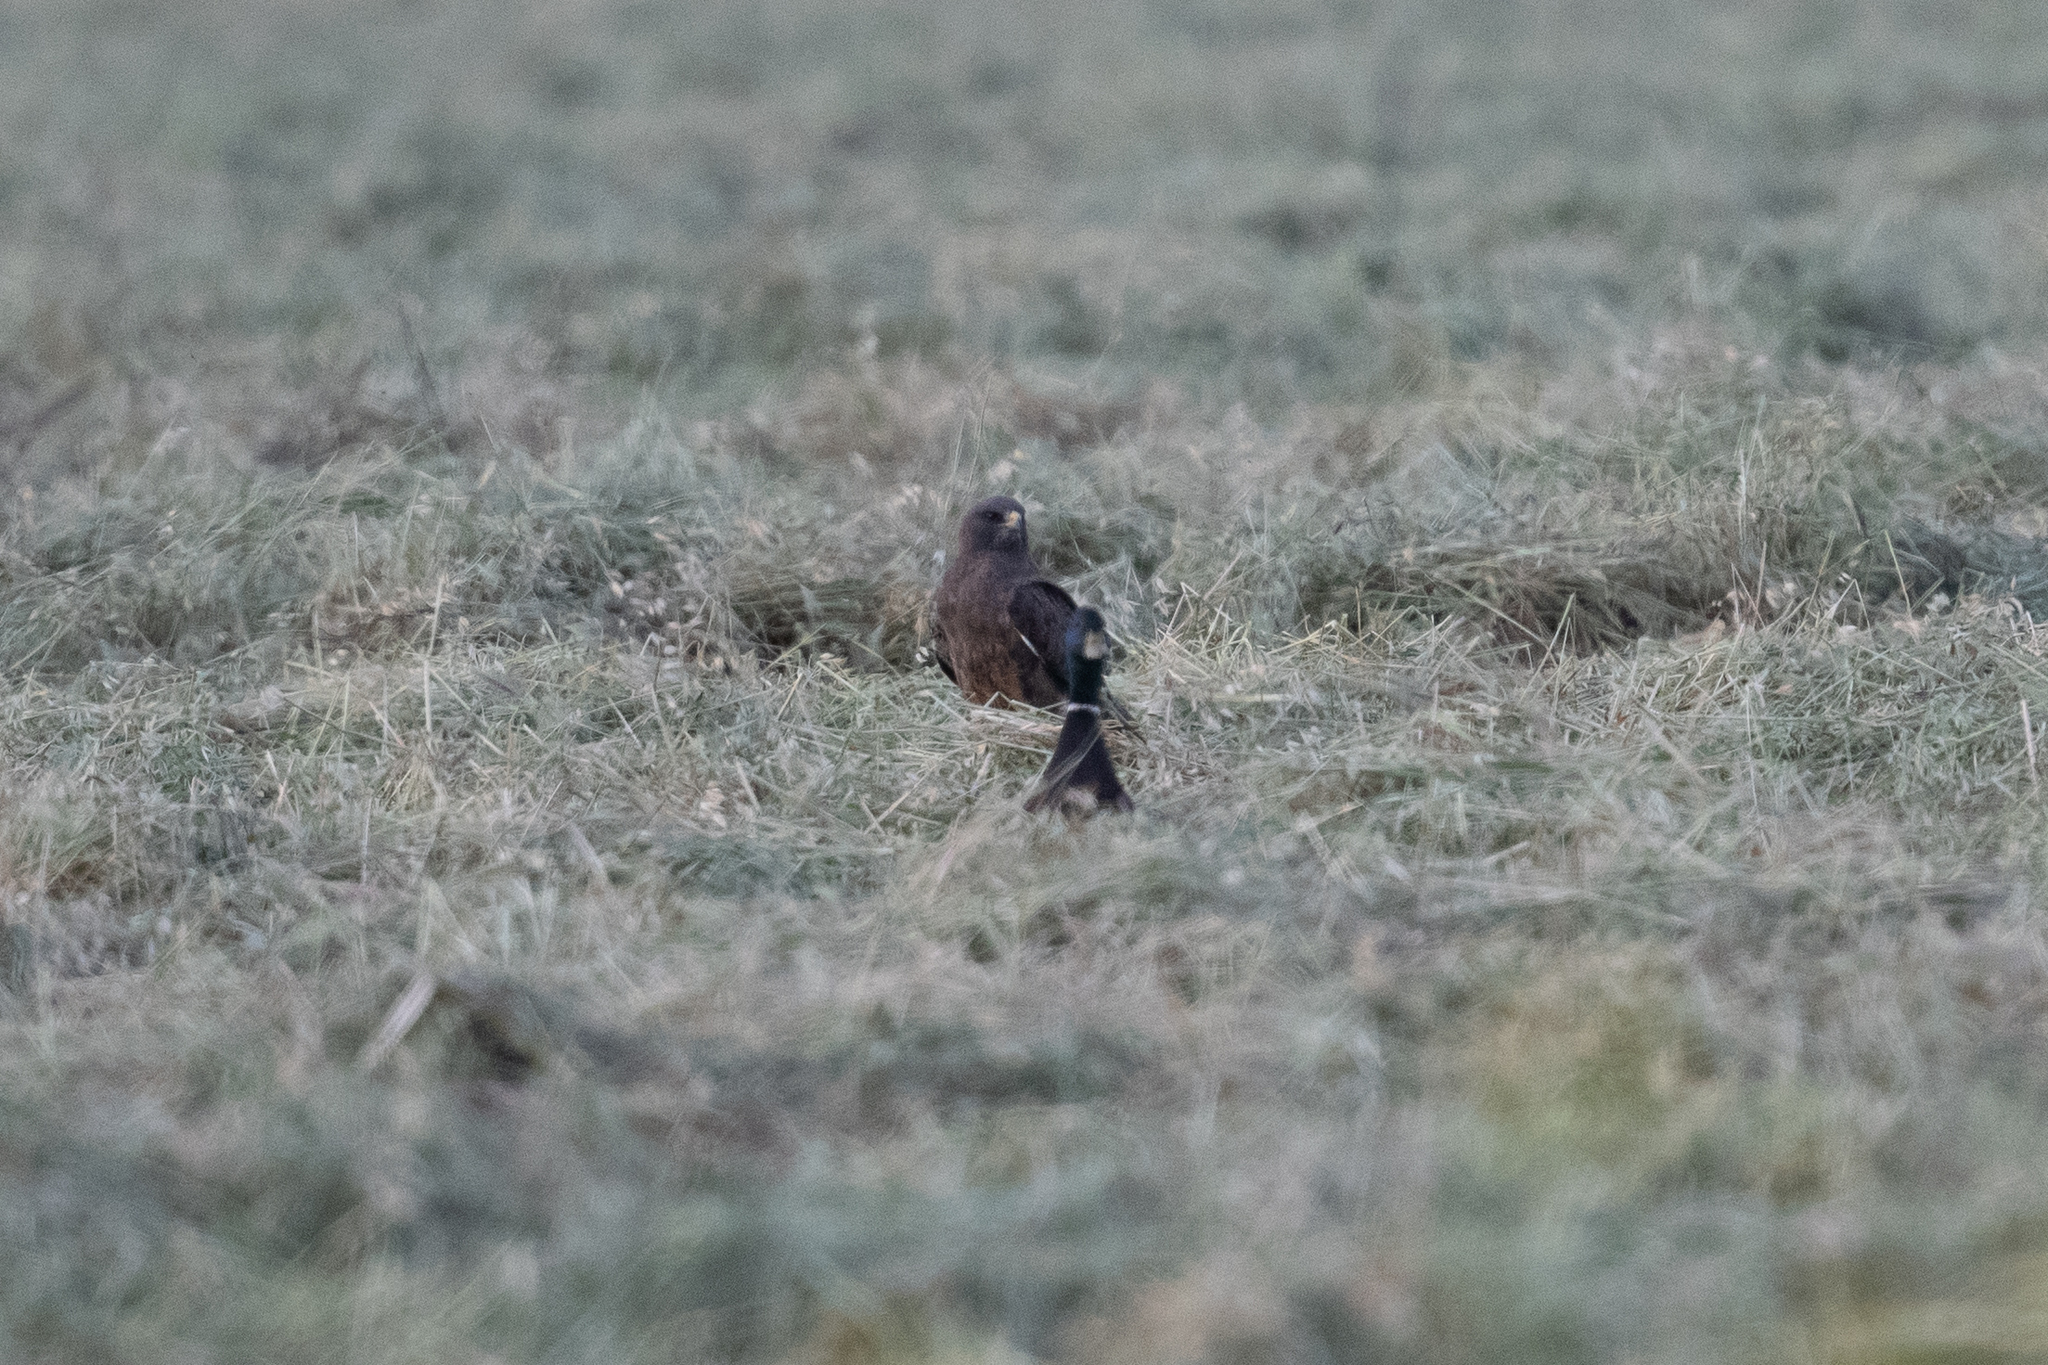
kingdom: Animalia
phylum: Chordata
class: Aves
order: Accipitriformes
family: Accipitridae
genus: Buteo
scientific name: Buteo swainsoni
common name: Swainson's hawk
